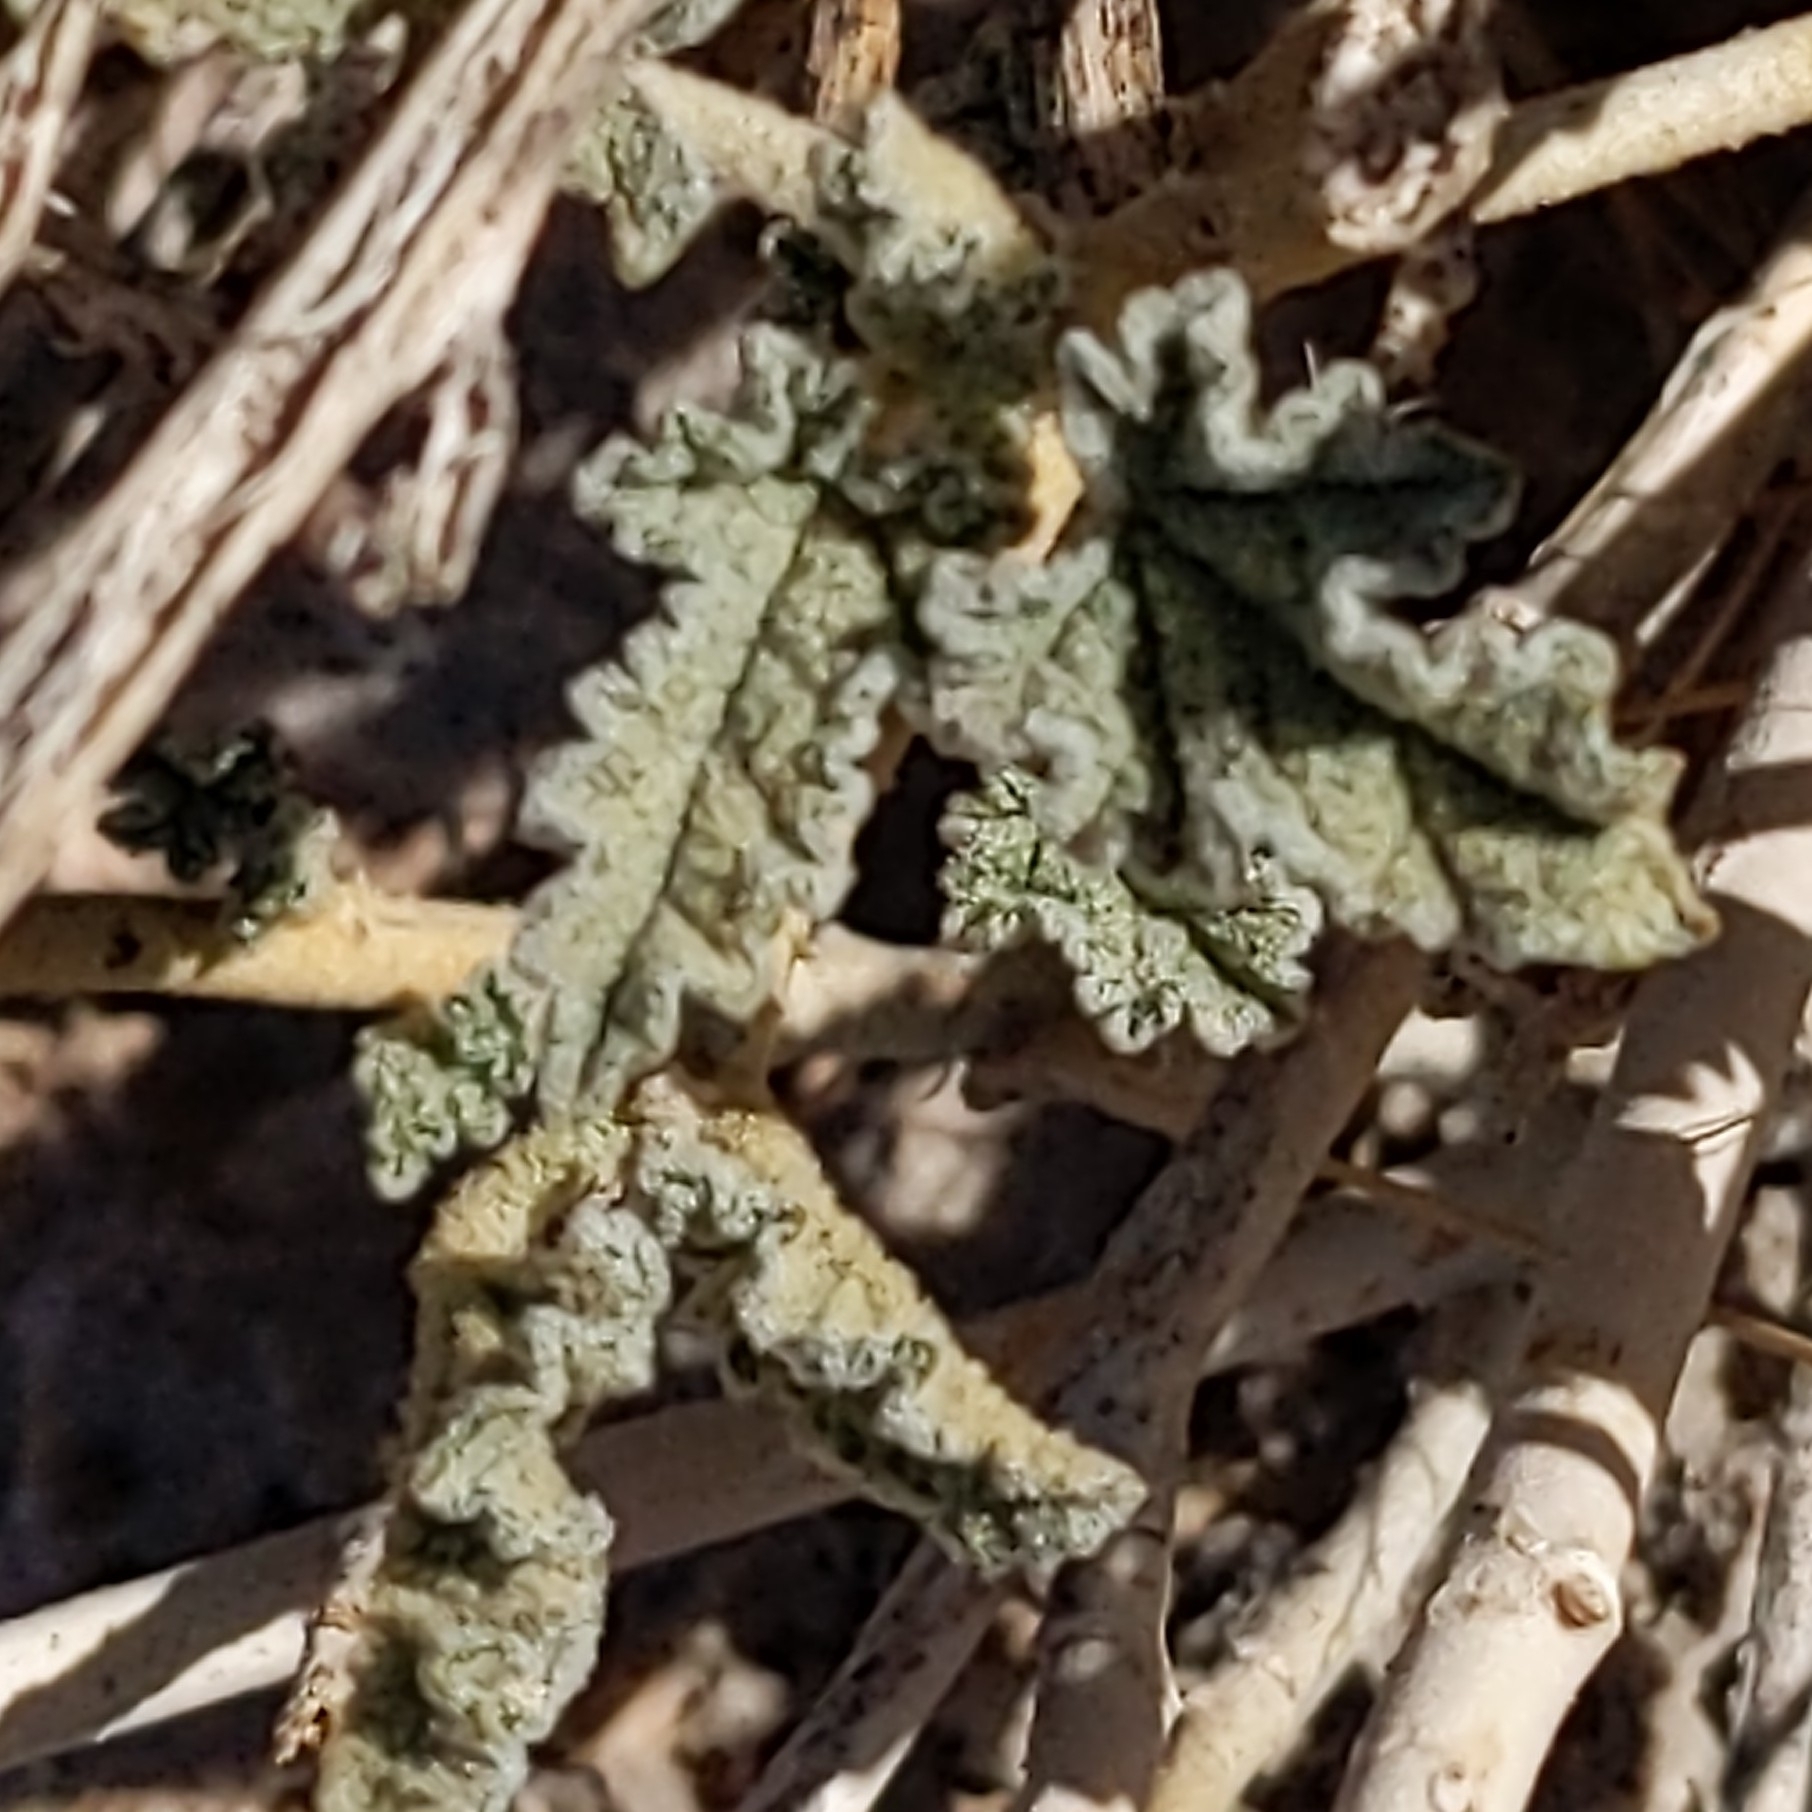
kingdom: Plantae
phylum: Tracheophyta
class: Magnoliopsida
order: Malvales
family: Malvaceae
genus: Sphaeralcea
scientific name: Sphaeralcea ambigua
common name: Apricot globe-mallow
